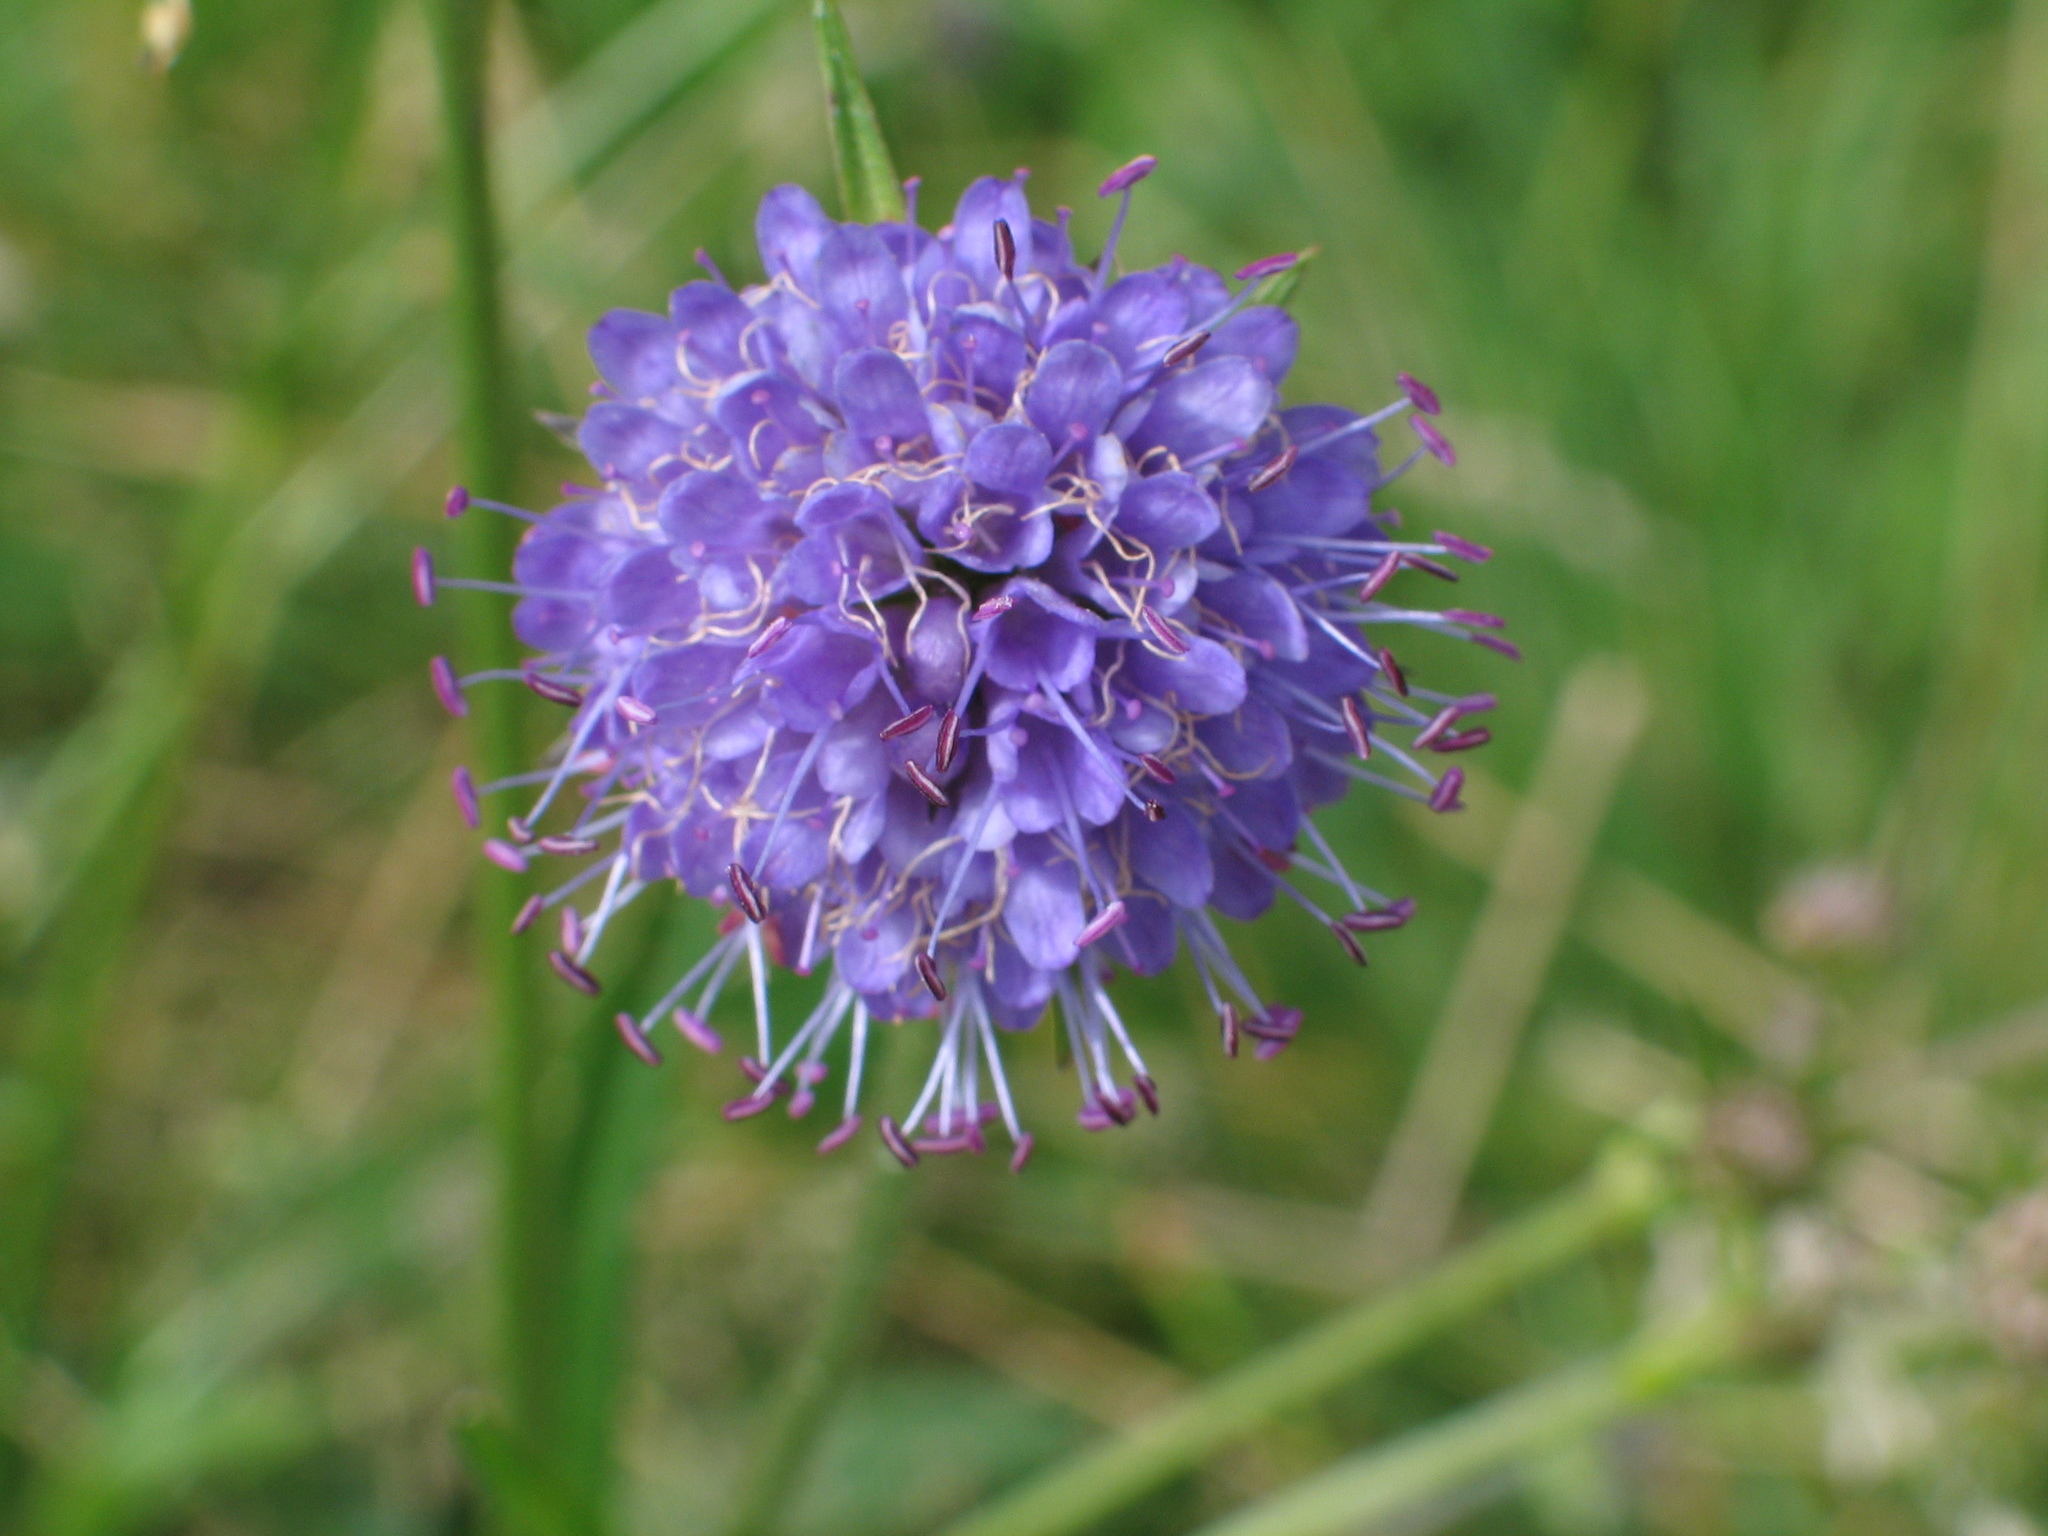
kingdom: Plantae
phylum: Tracheophyta
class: Magnoliopsida
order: Dipsacales
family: Caprifoliaceae
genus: Succisa
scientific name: Succisa pratensis
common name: Devil's-bit
